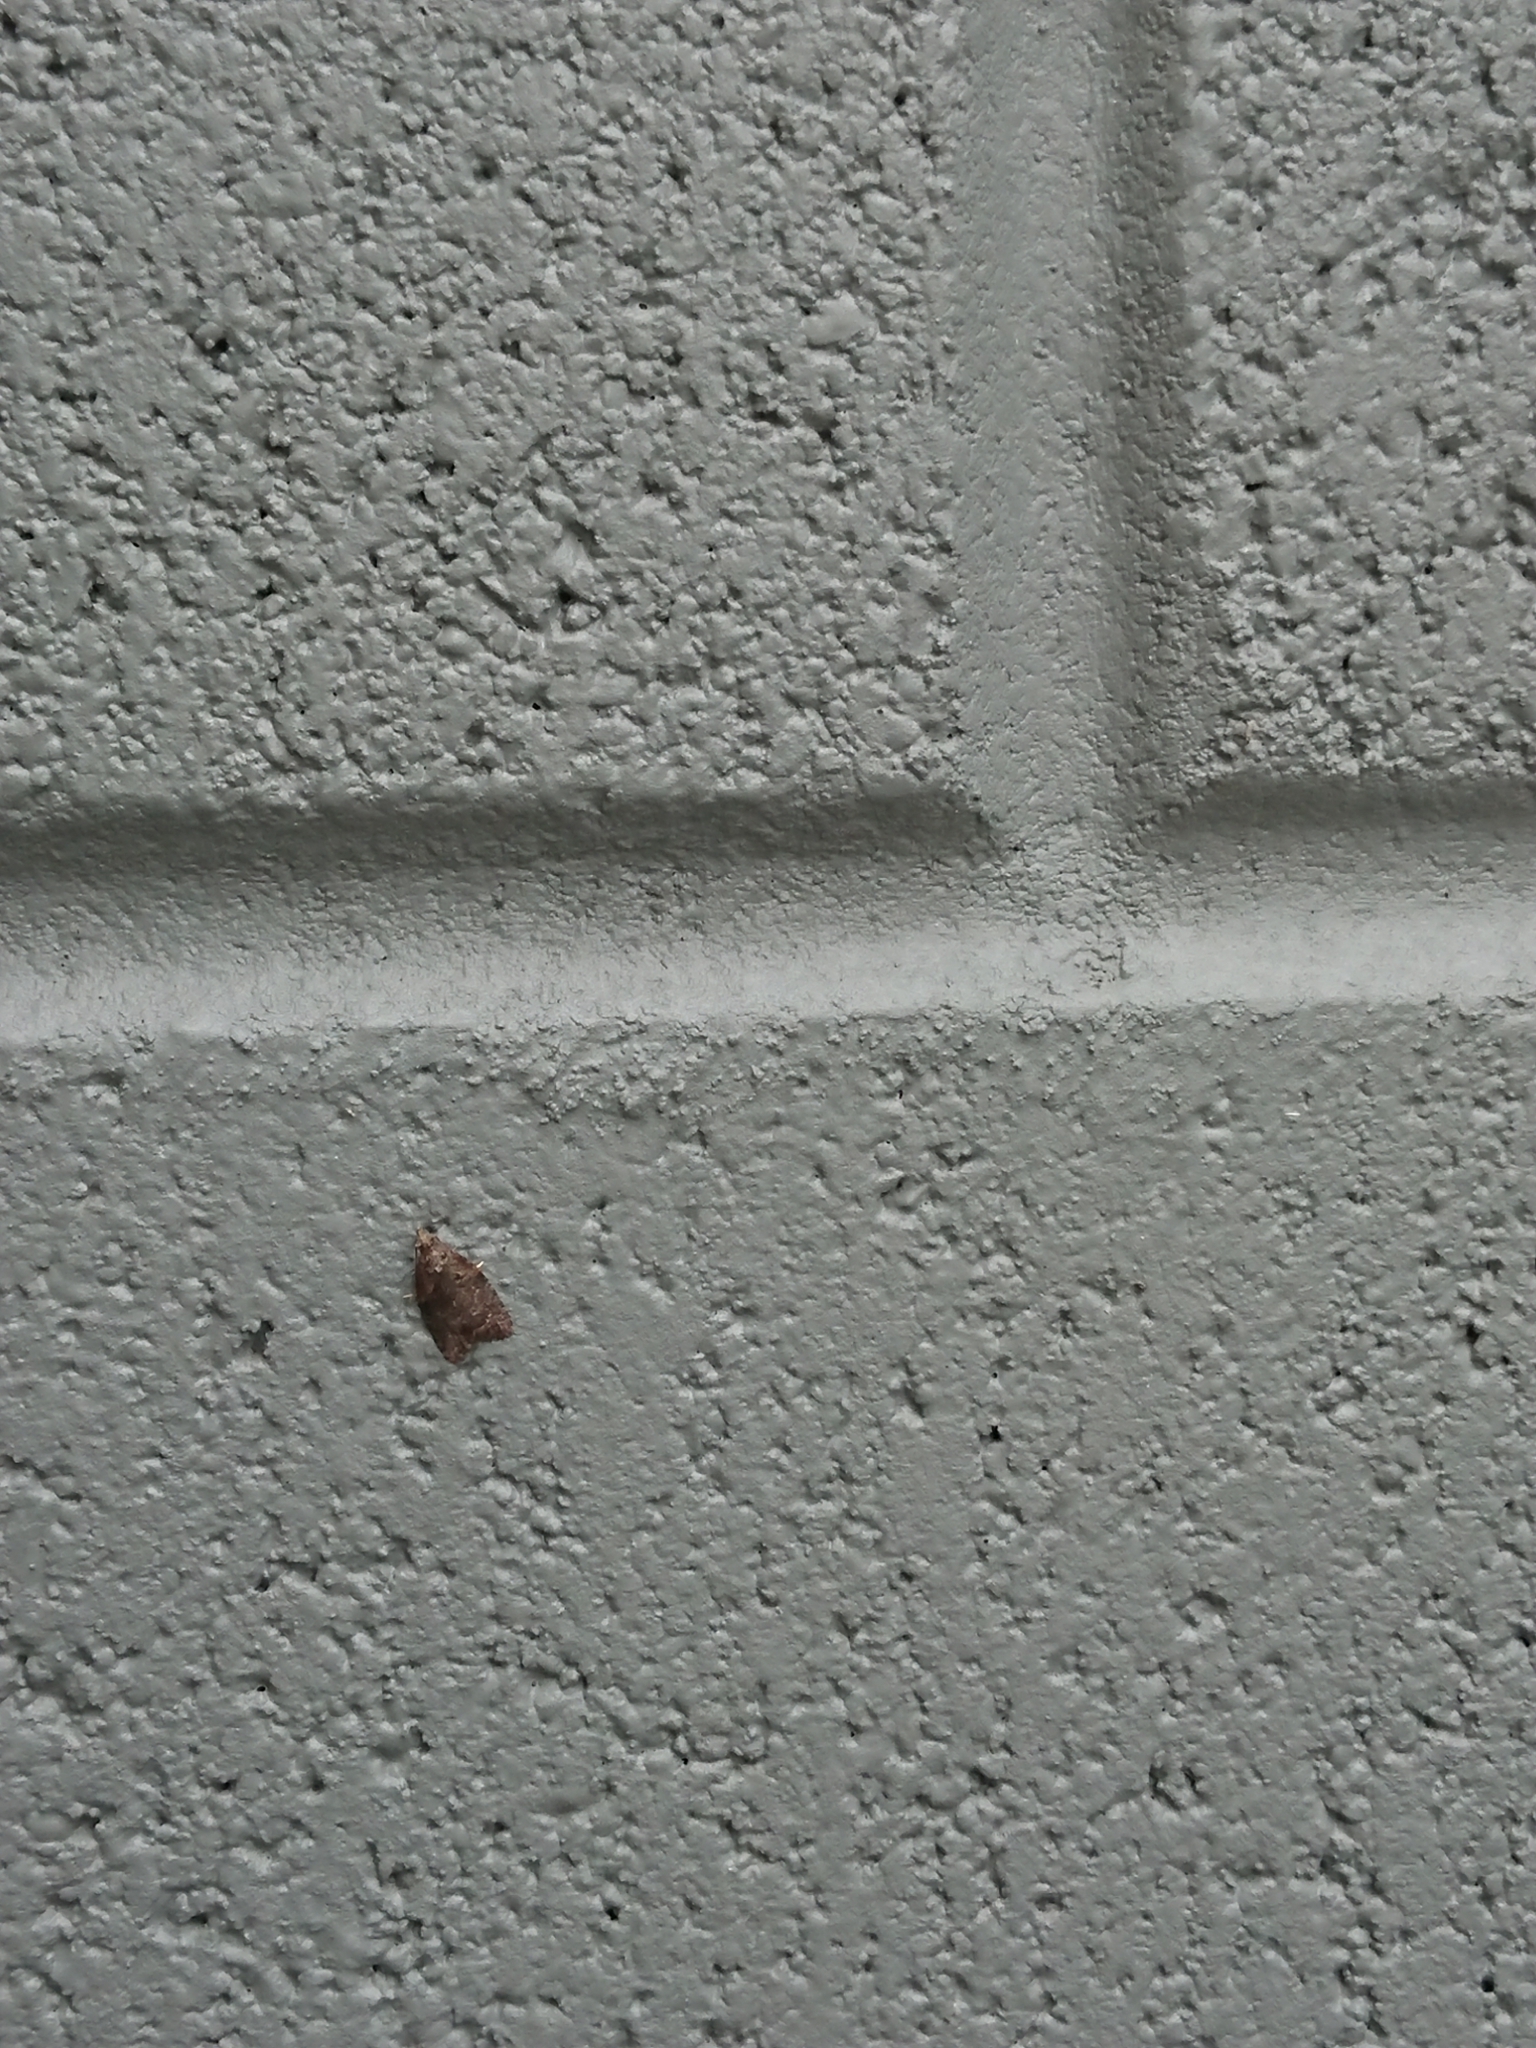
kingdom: Animalia
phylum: Arthropoda
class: Insecta
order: Lepidoptera
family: Tortricidae
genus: Capua
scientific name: Capua intractana
